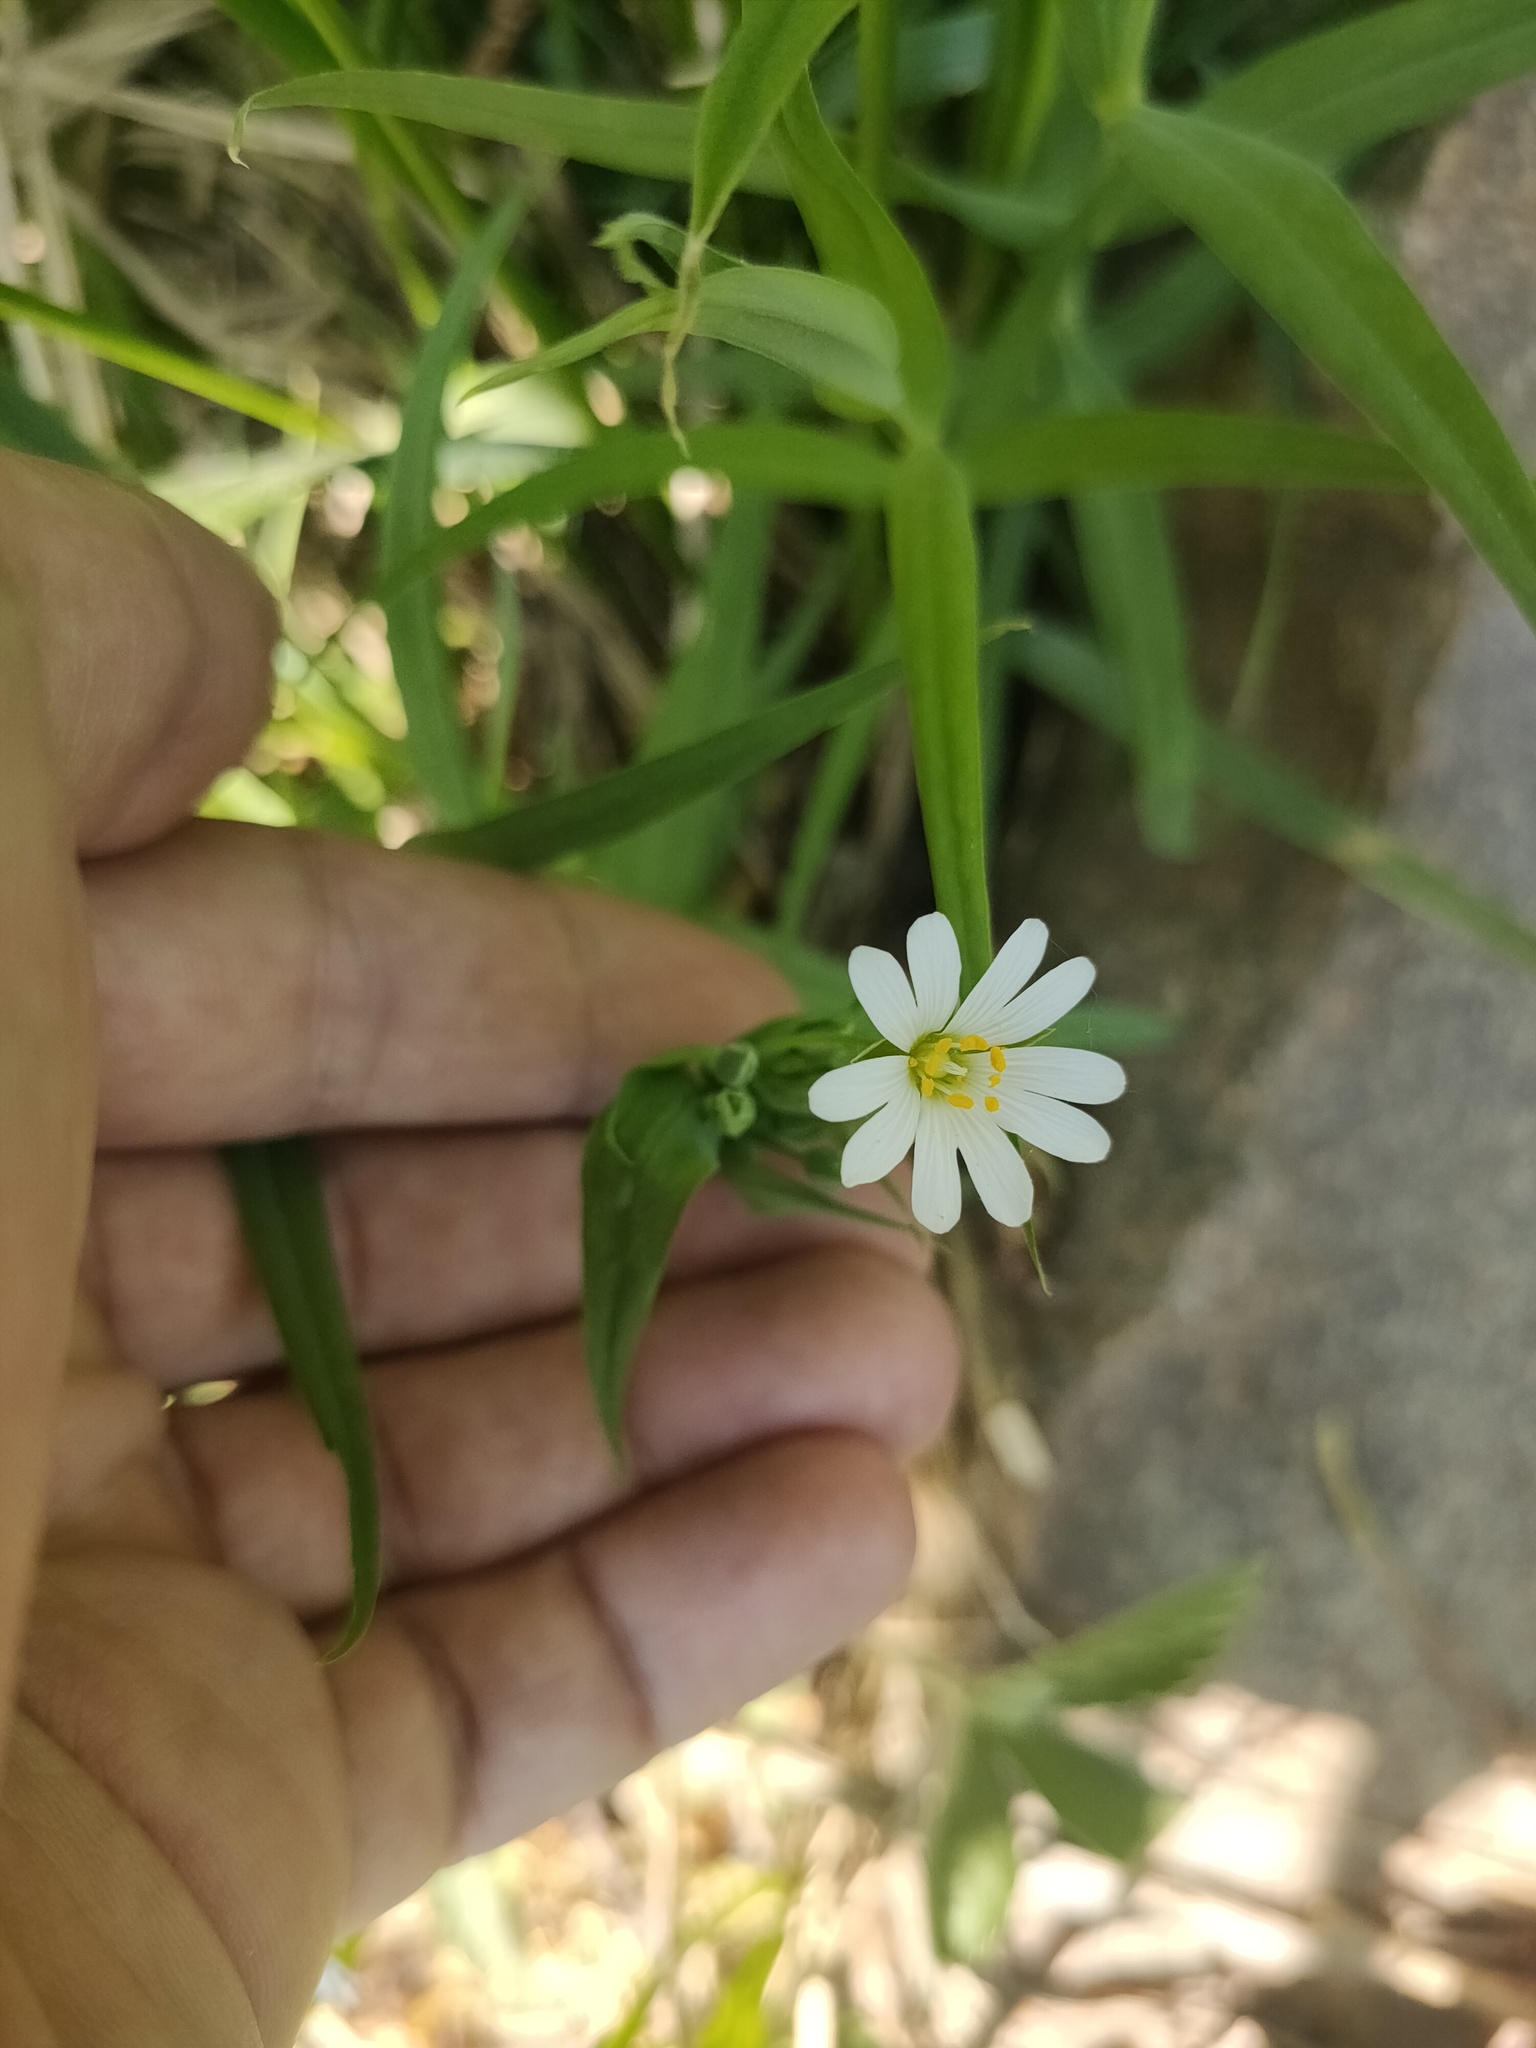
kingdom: Plantae
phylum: Tracheophyta
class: Magnoliopsida
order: Caryophyllales
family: Caryophyllaceae
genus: Rabelera
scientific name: Rabelera holostea
